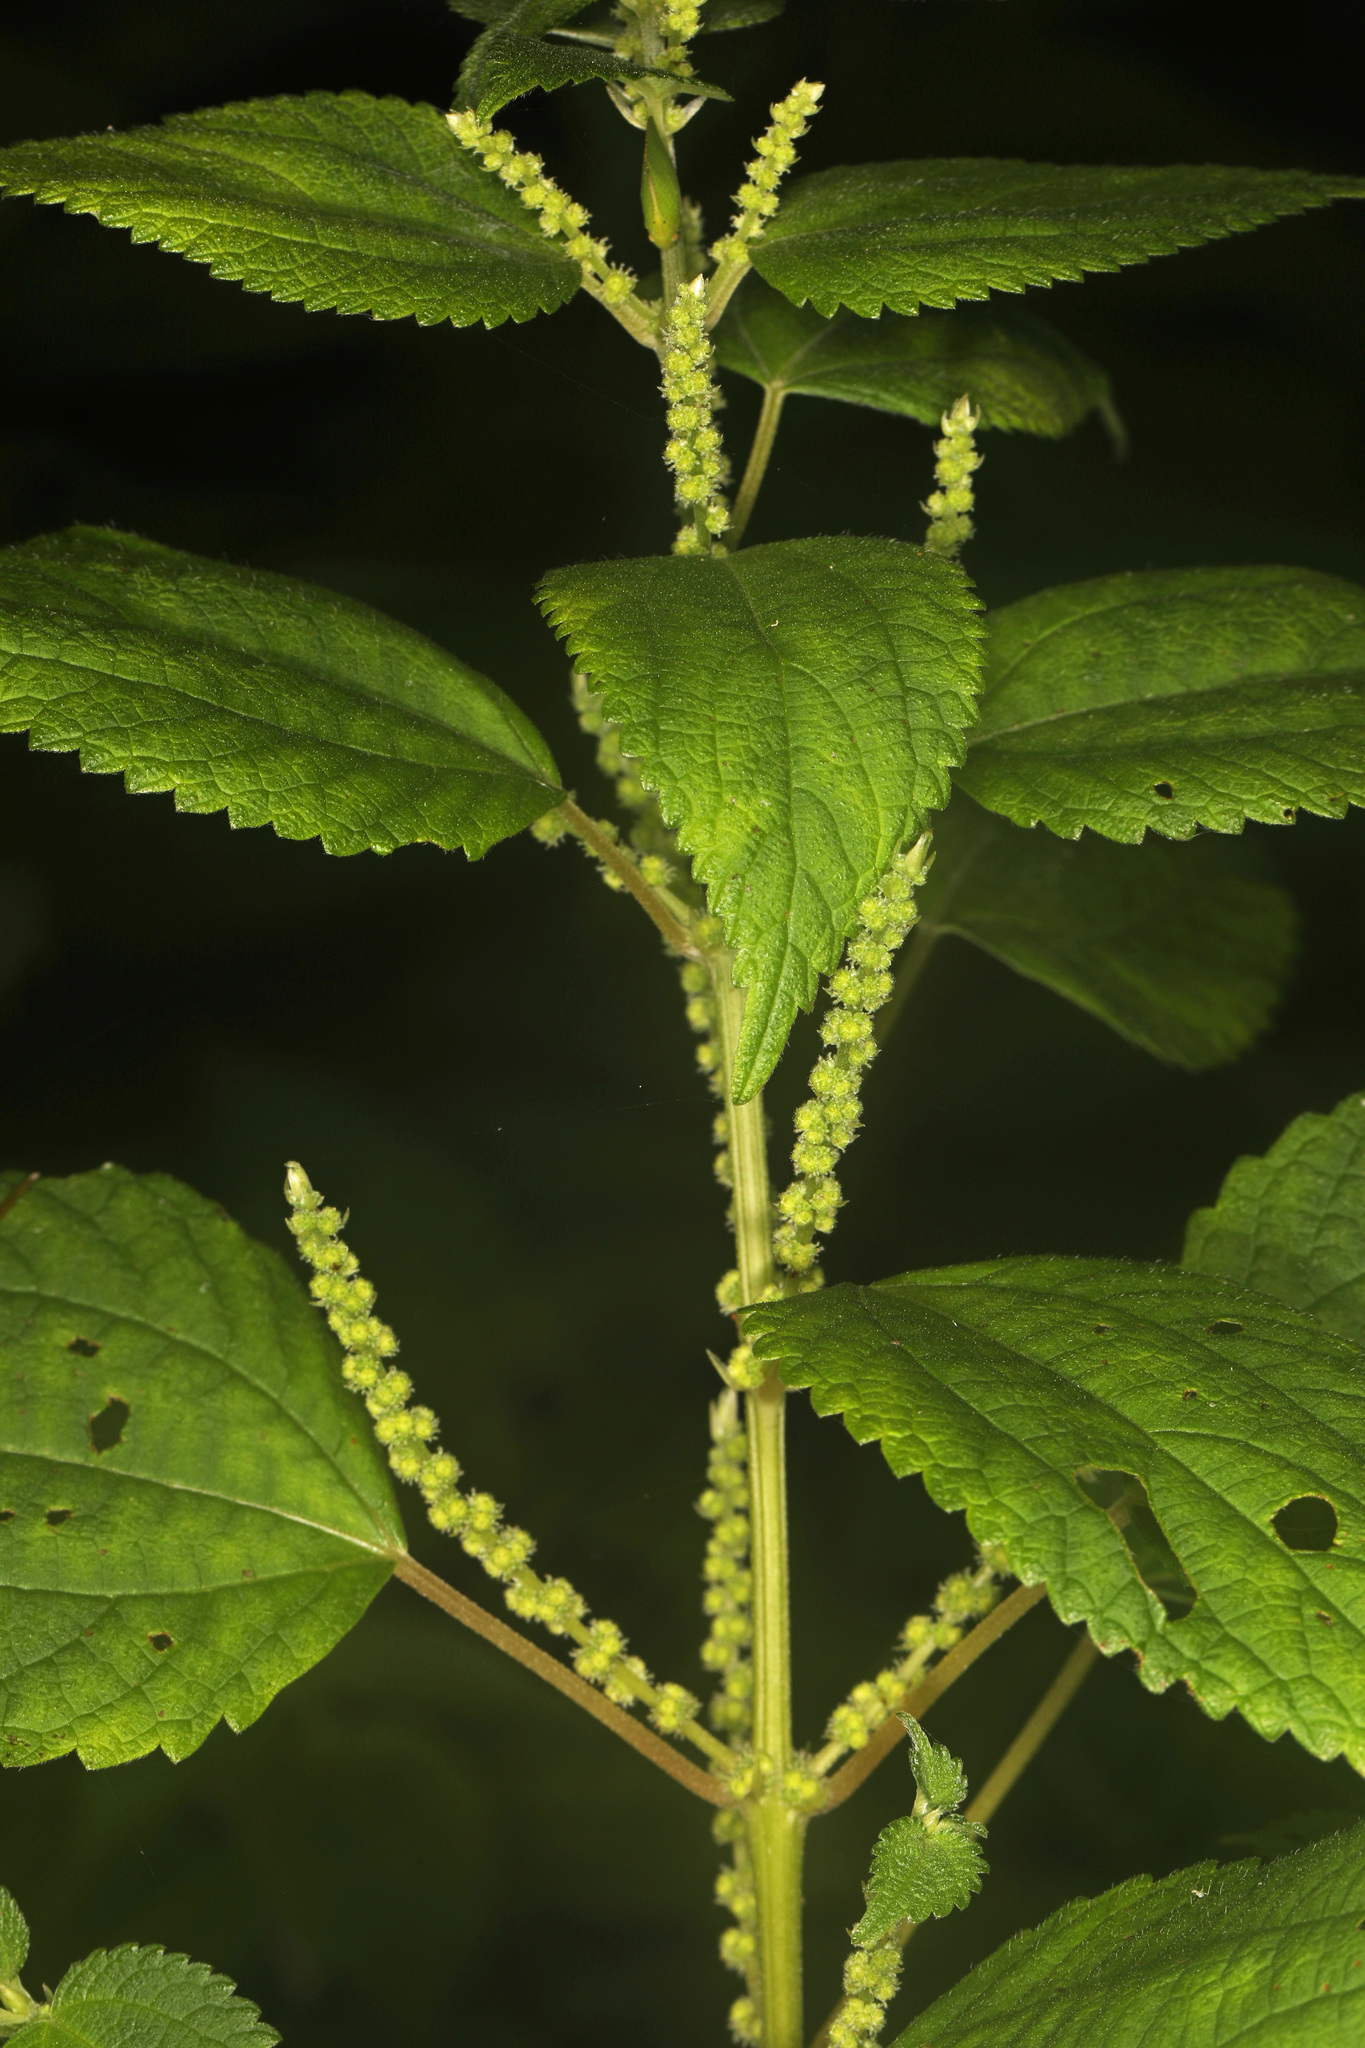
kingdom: Plantae
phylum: Tracheophyta
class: Magnoliopsida
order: Rosales
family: Urticaceae
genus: Boehmeria
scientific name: Boehmeria cylindrica
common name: Bog-hemp
